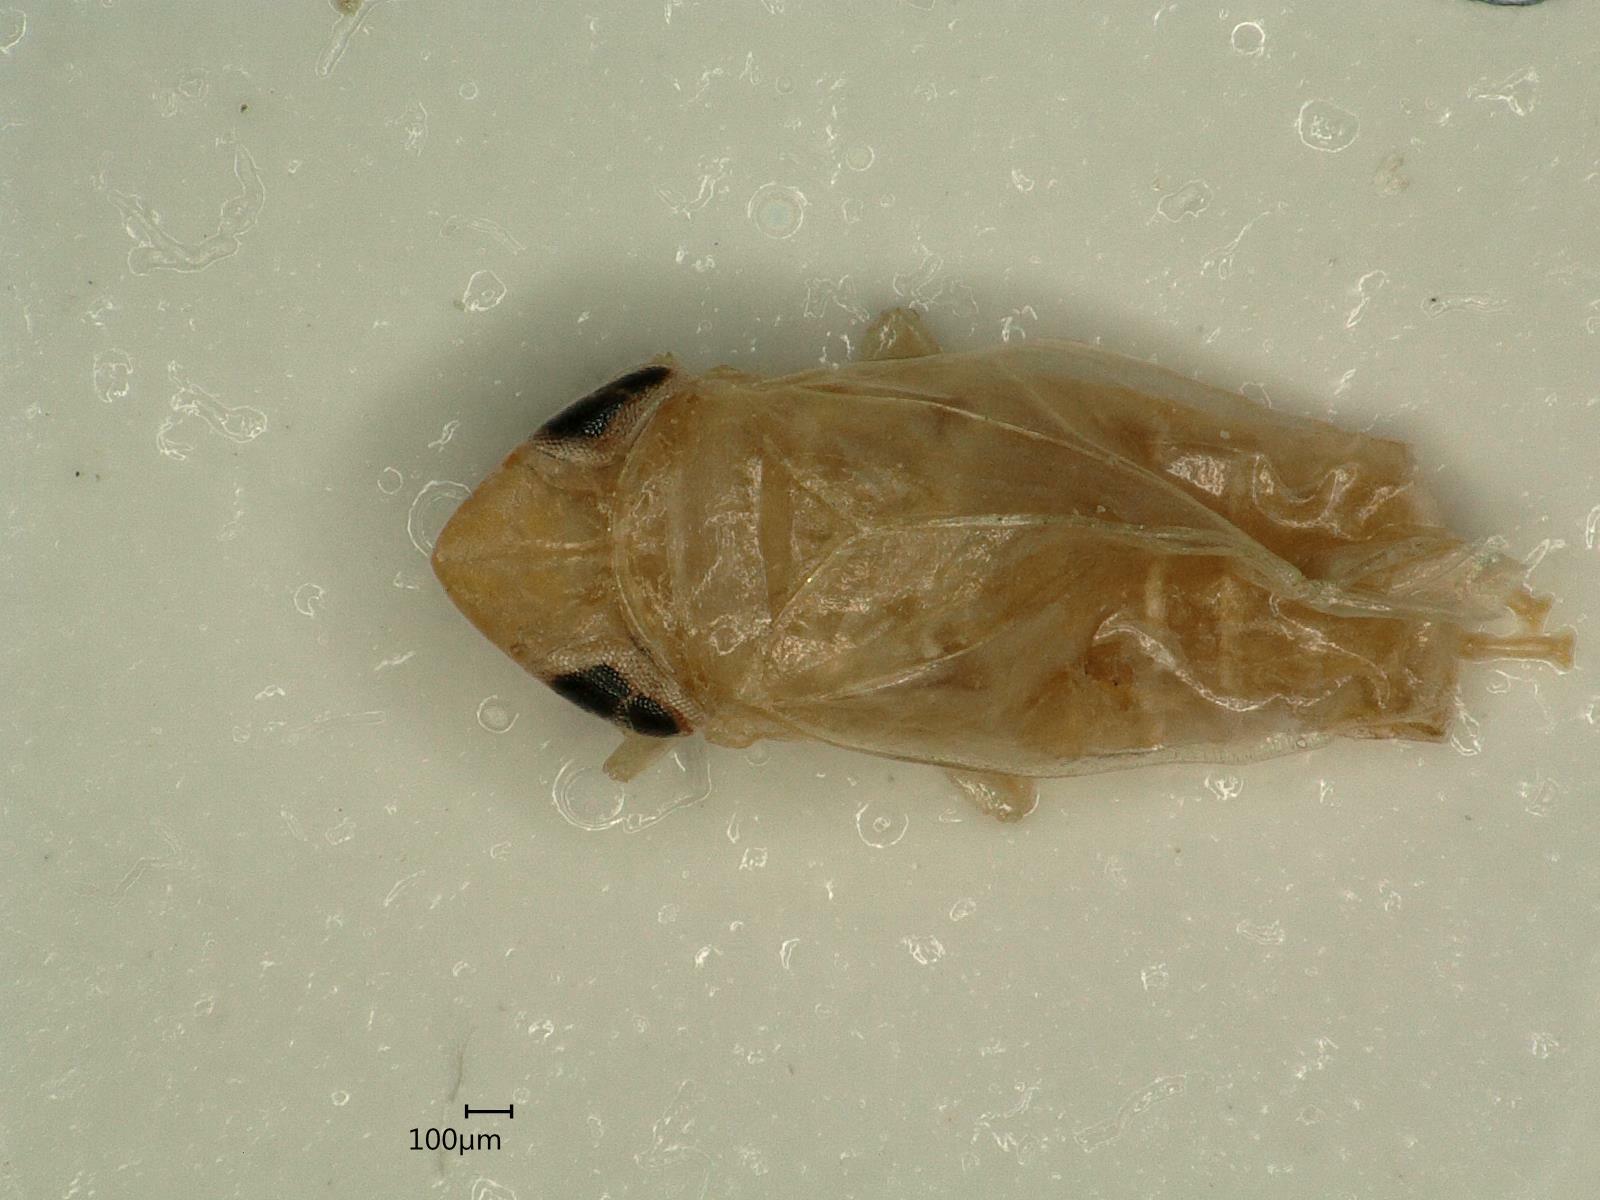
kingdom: Animalia
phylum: Arthropoda
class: Insecta
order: Hemiptera
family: Cicadellidae
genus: Jassargus
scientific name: Jassargus distinguendus
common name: Leafhopper
